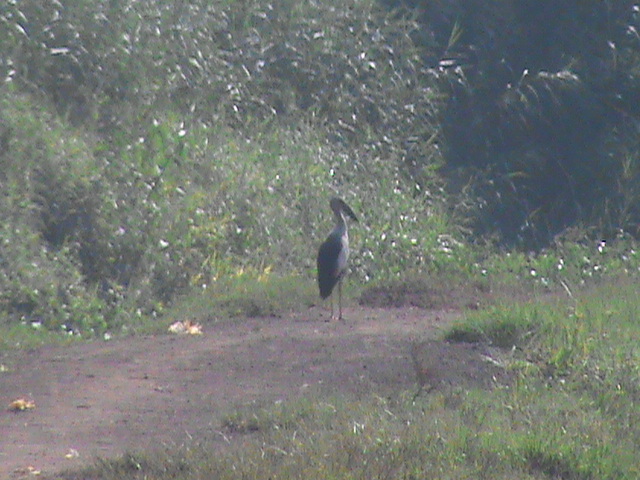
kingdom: Animalia
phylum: Chordata
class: Aves
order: Ciconiiformes
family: Ciconiidae
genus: Anastomus
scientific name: Anastomus oscitans
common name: Asian openbill
